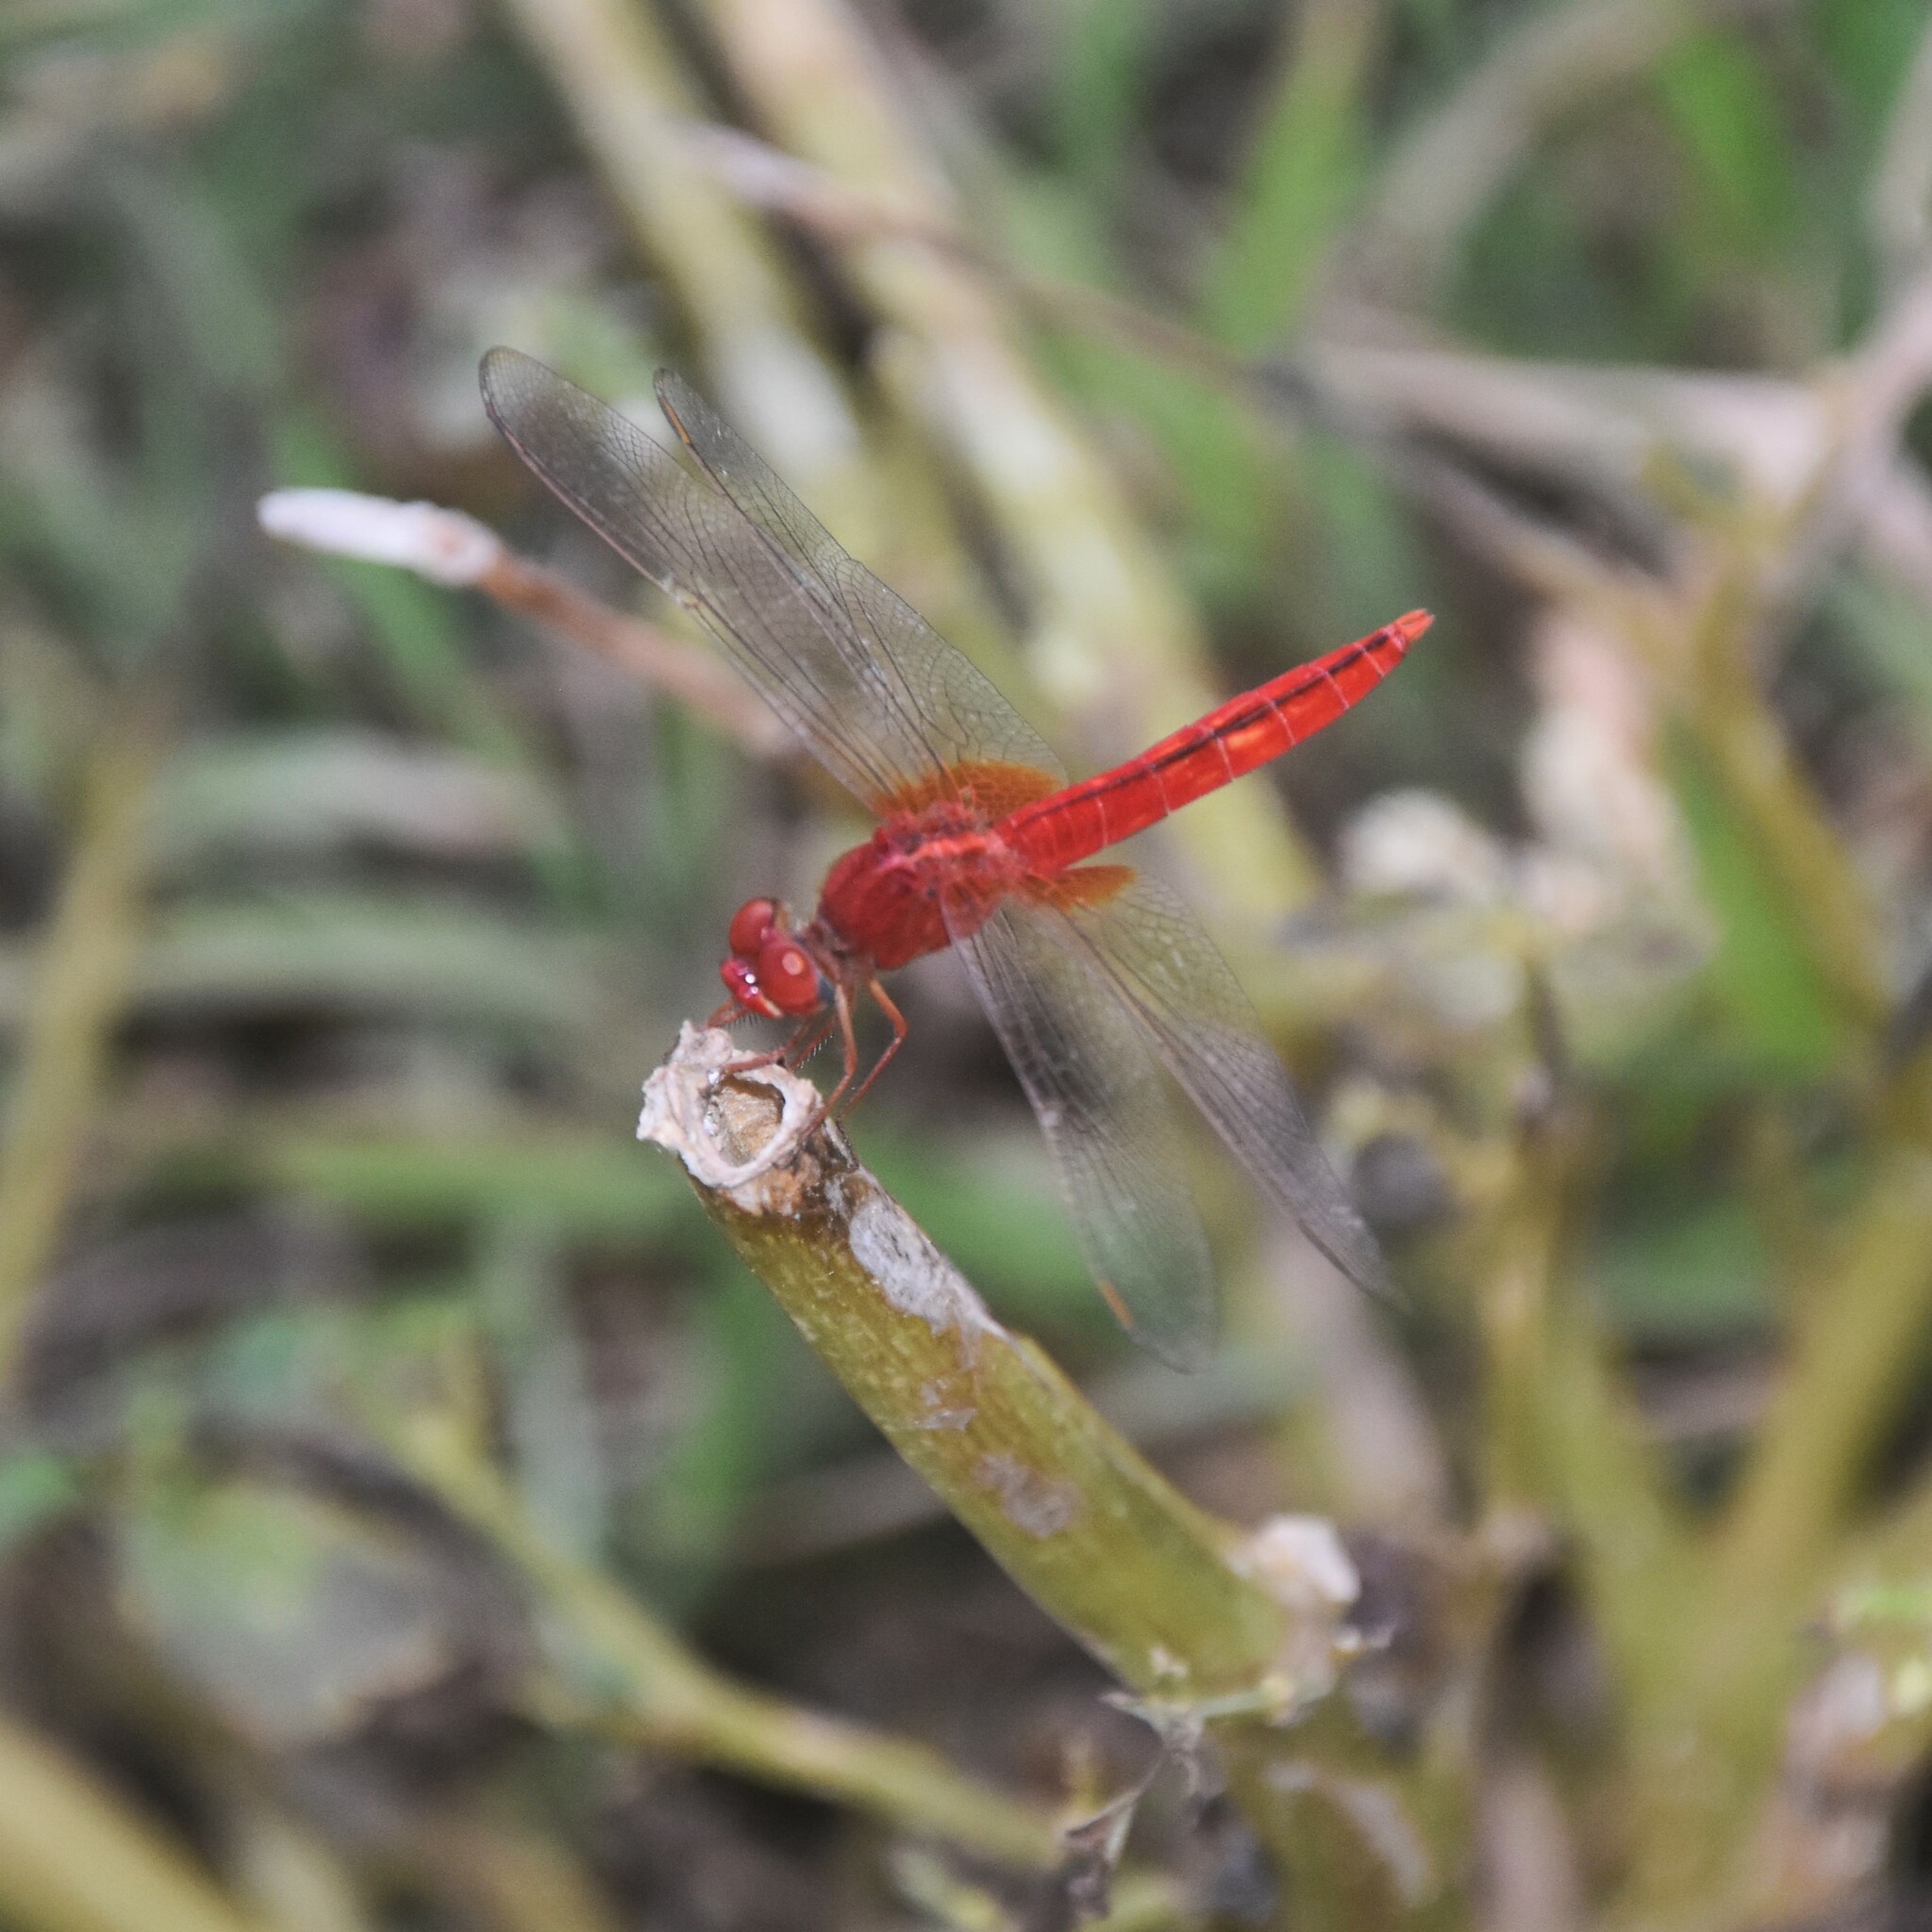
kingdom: Animalia
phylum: Arthropoda
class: Insecta
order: Odonata
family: Libellulidae
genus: Crocothemis
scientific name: Crocothemis servilia
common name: Scarlet skimmer
